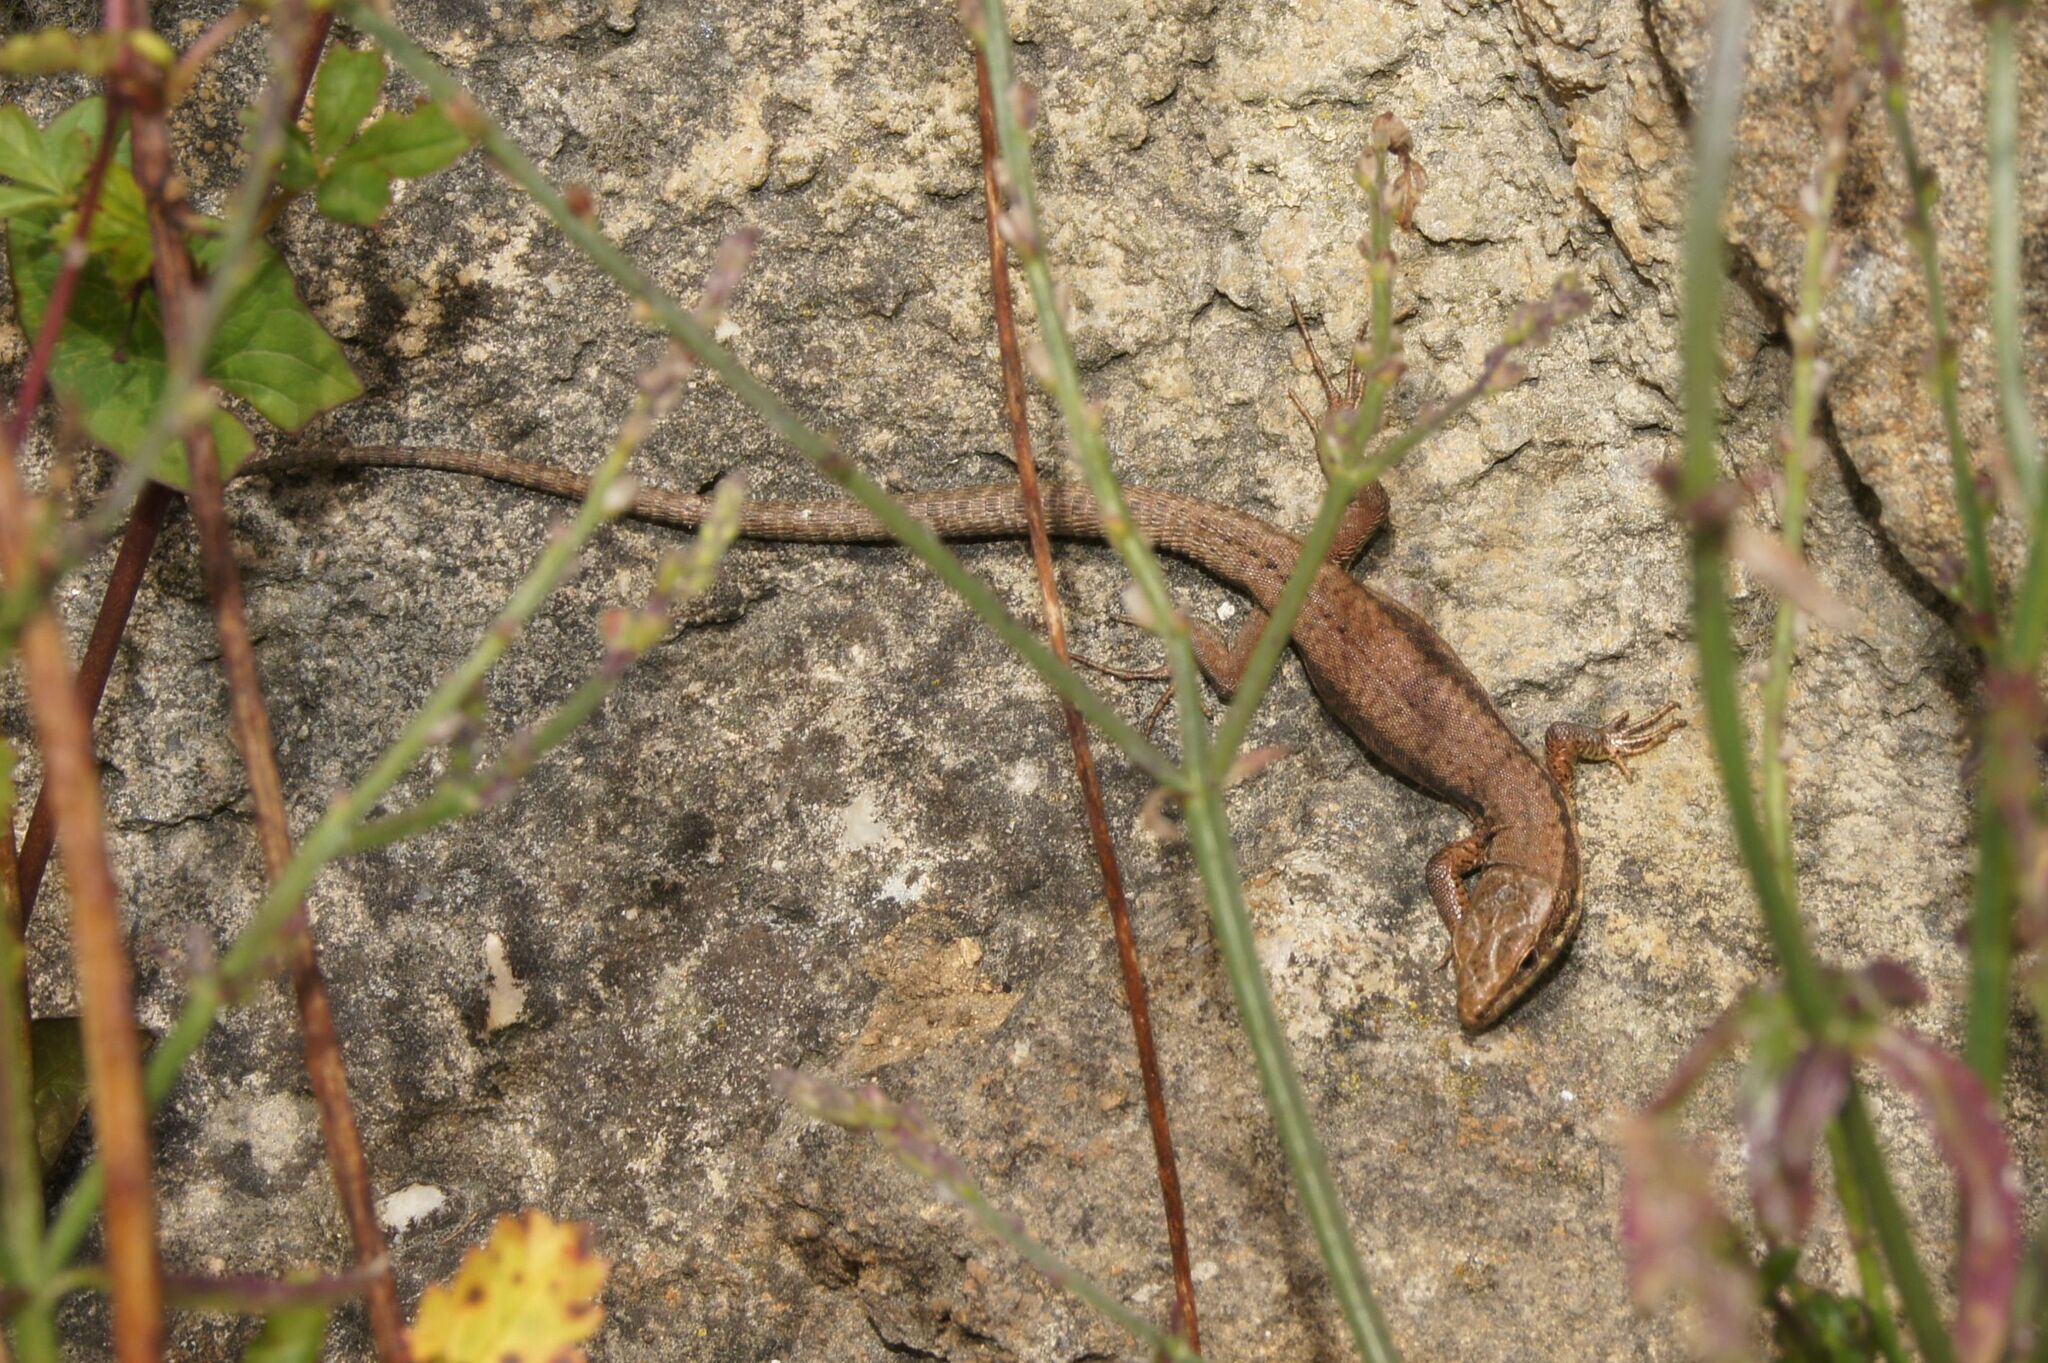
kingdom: Animalia
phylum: Chordata
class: Squamata
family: Lacertidae
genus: Podarcis
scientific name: Podarcis muralis
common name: Common wall lizard
